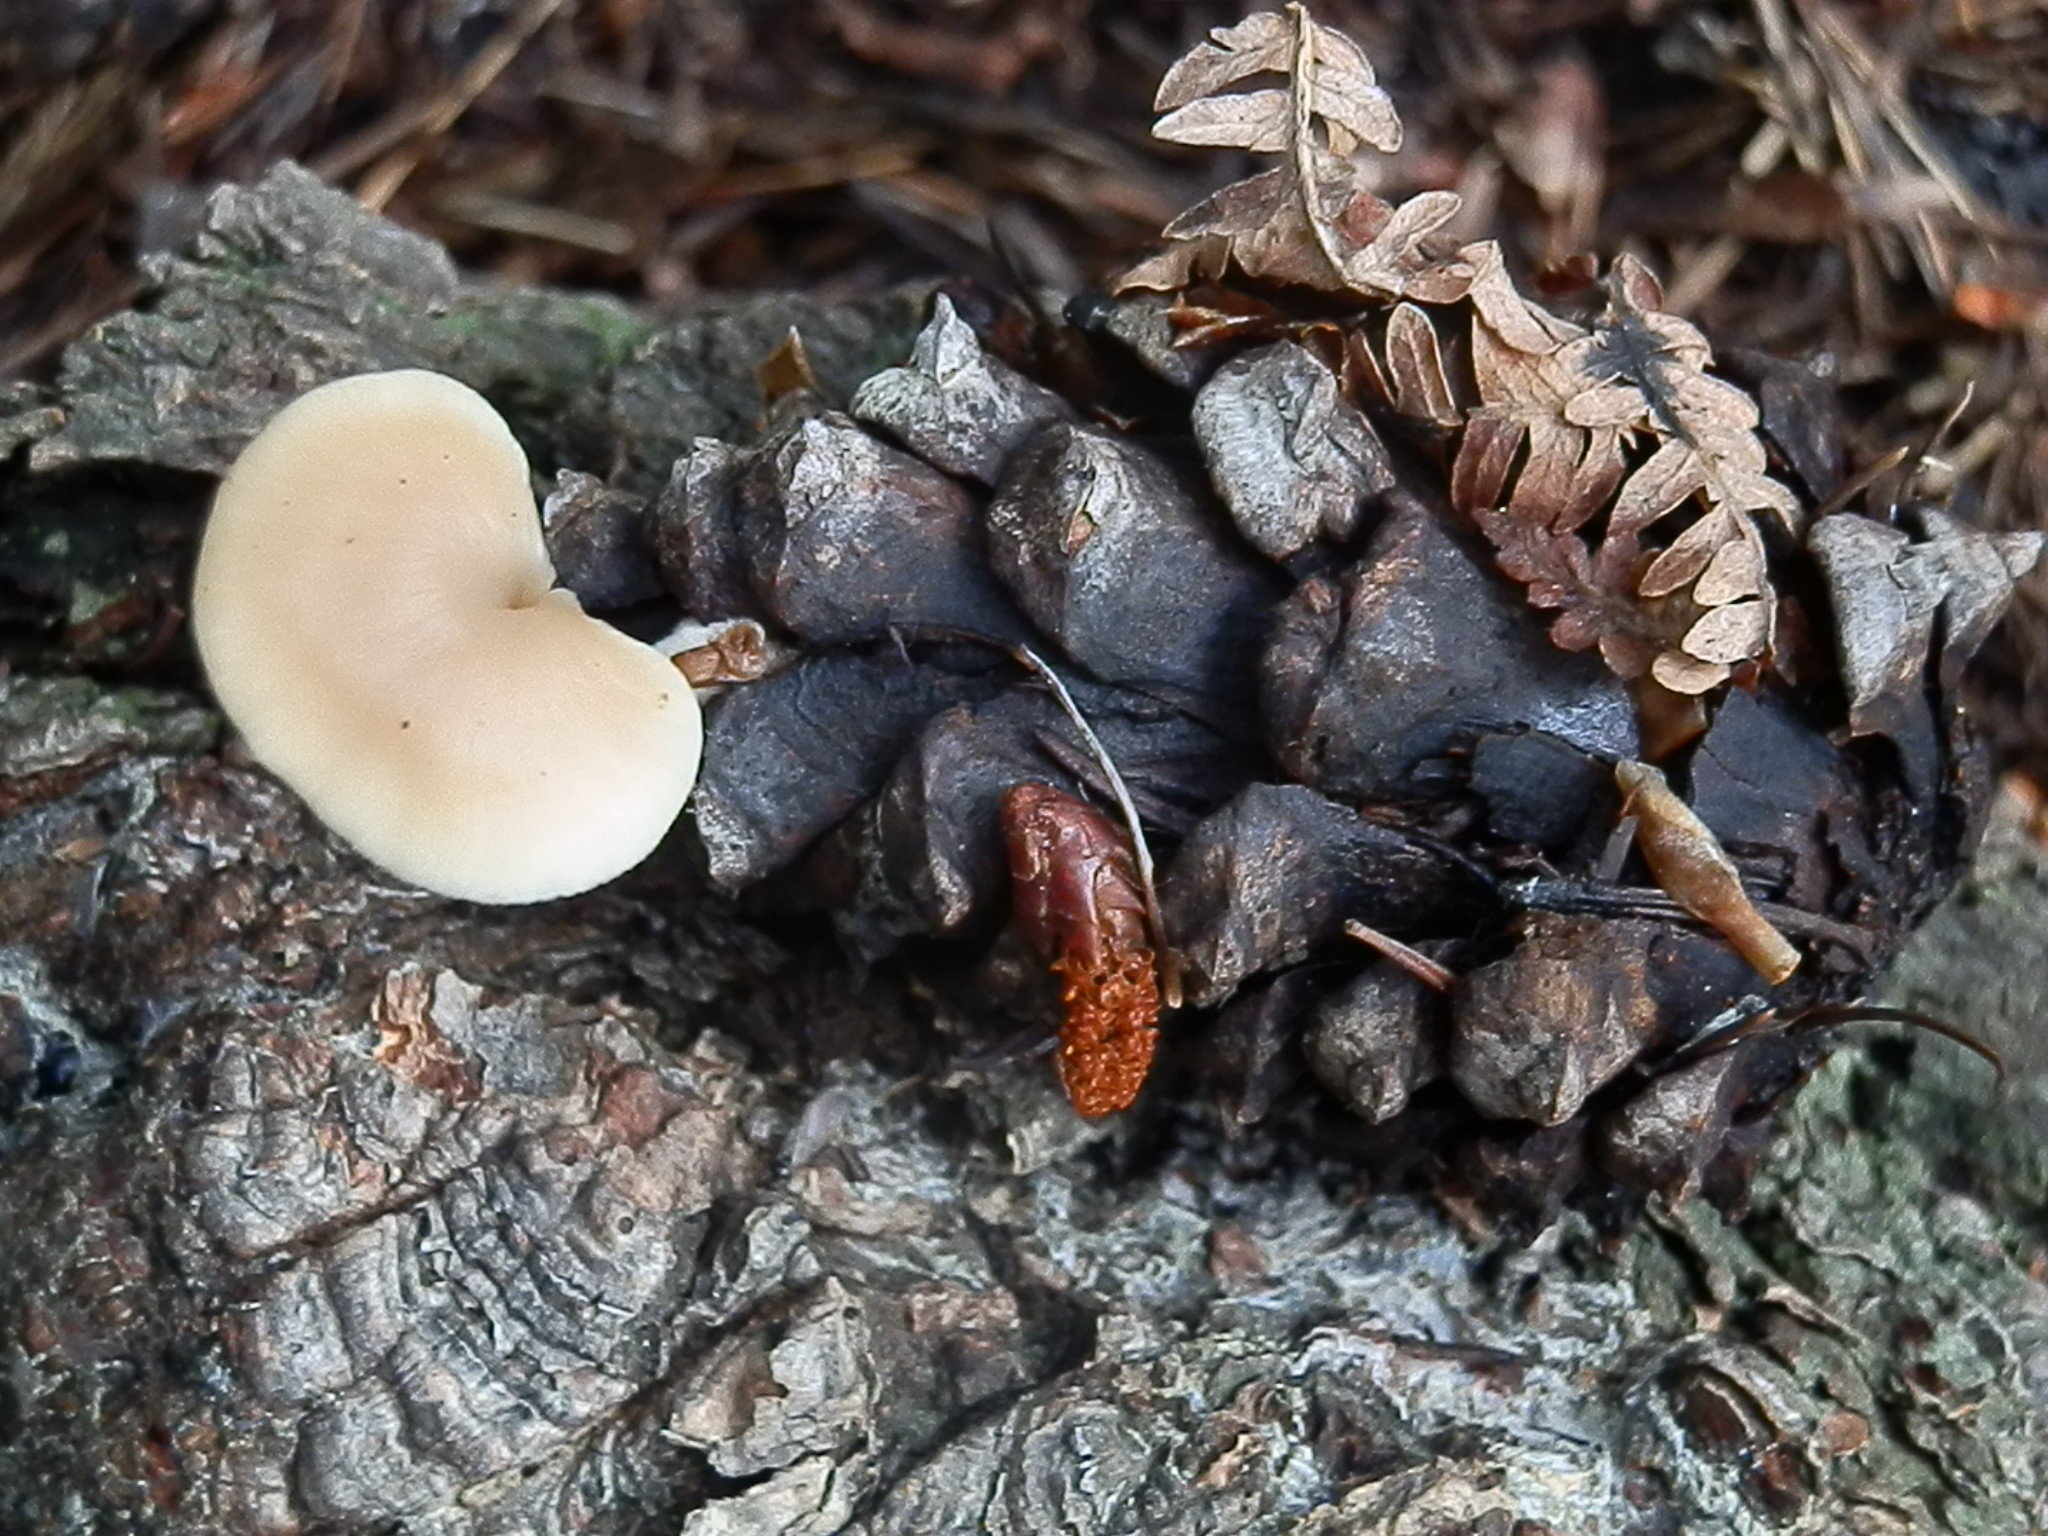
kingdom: Fungi
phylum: Basidiomycota
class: Agaricomycetes
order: Russulales
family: Auriscalpiaceae
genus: Lentinellus
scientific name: Lentinellus cystidiosus
